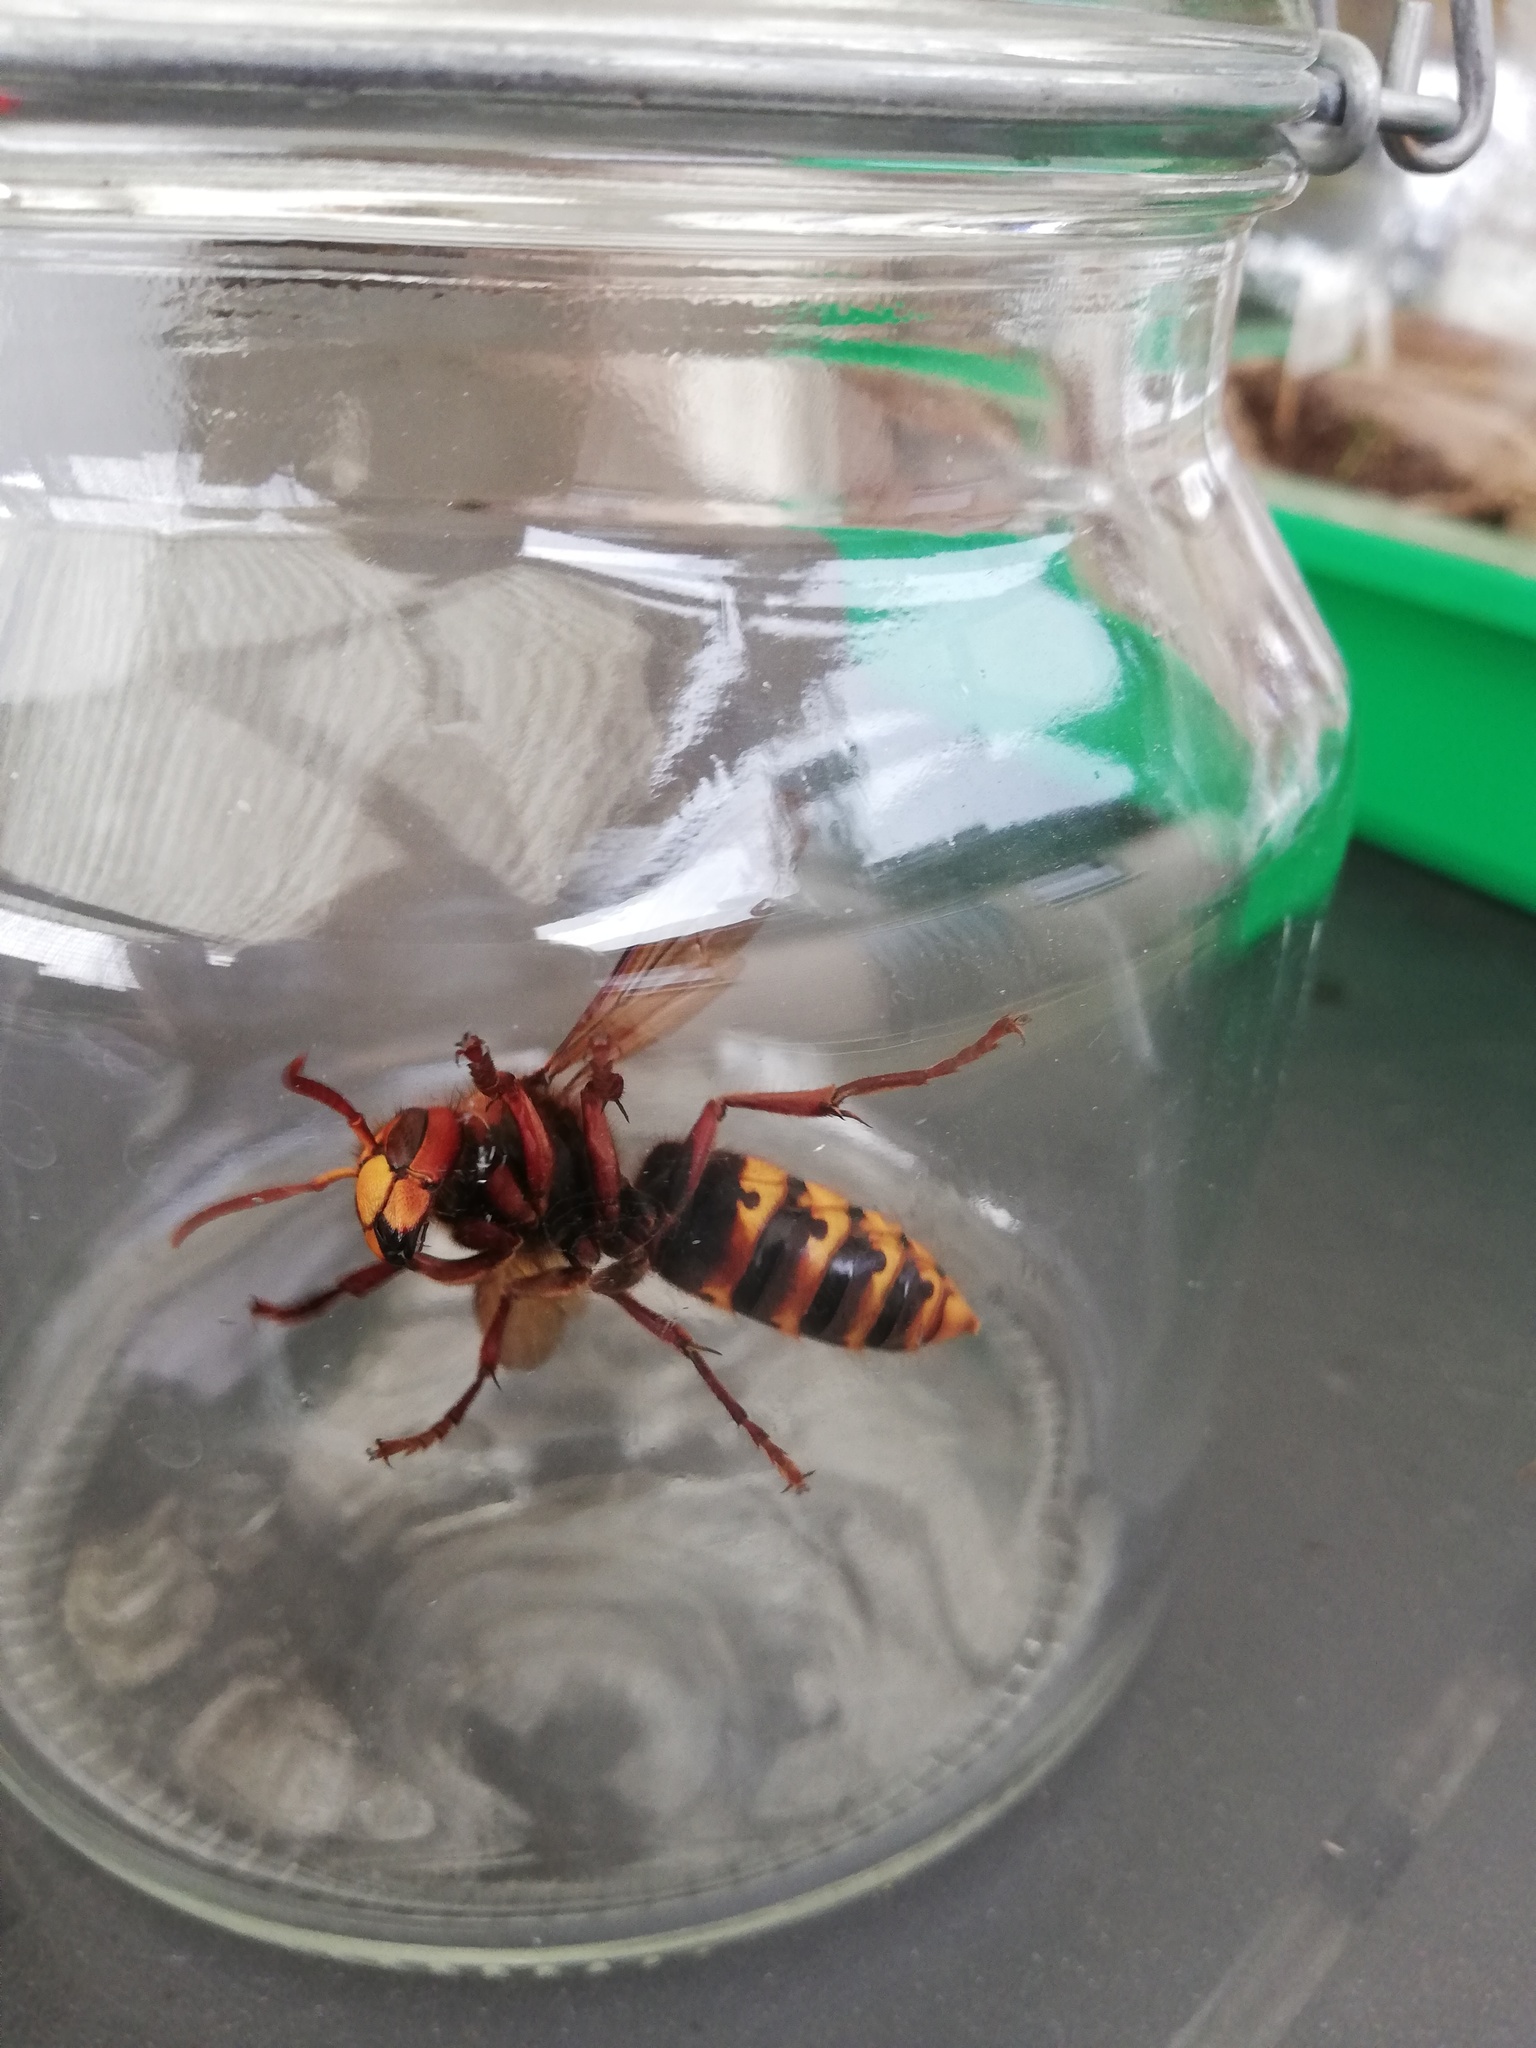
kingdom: Animalia
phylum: Arthropoda
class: Insecta
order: Hymenoptera
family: Vespidae
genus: Vespa
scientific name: Vespa crabro
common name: Hornet
